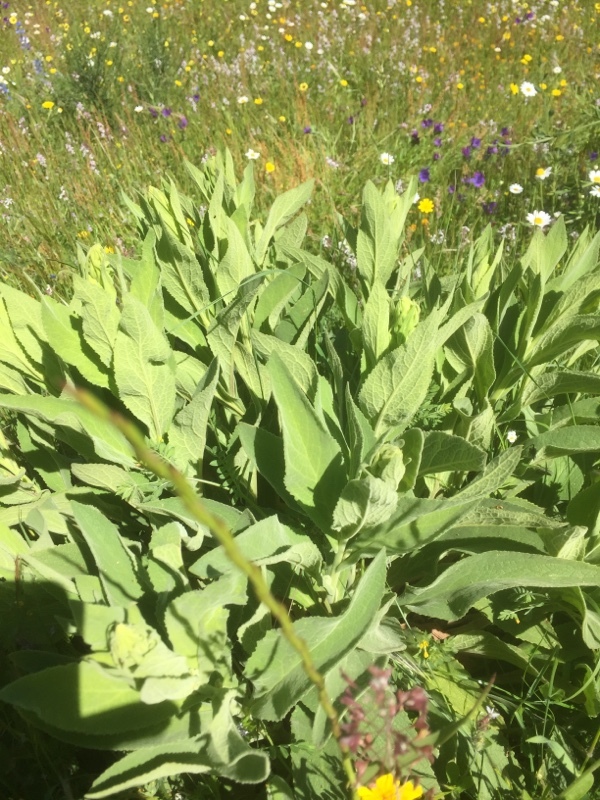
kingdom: Plantae
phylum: Tracheophyta
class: Magnoliopsida
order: Lamiales
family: Plantaginaceae
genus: Digitalis
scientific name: Digitalis thapsi
